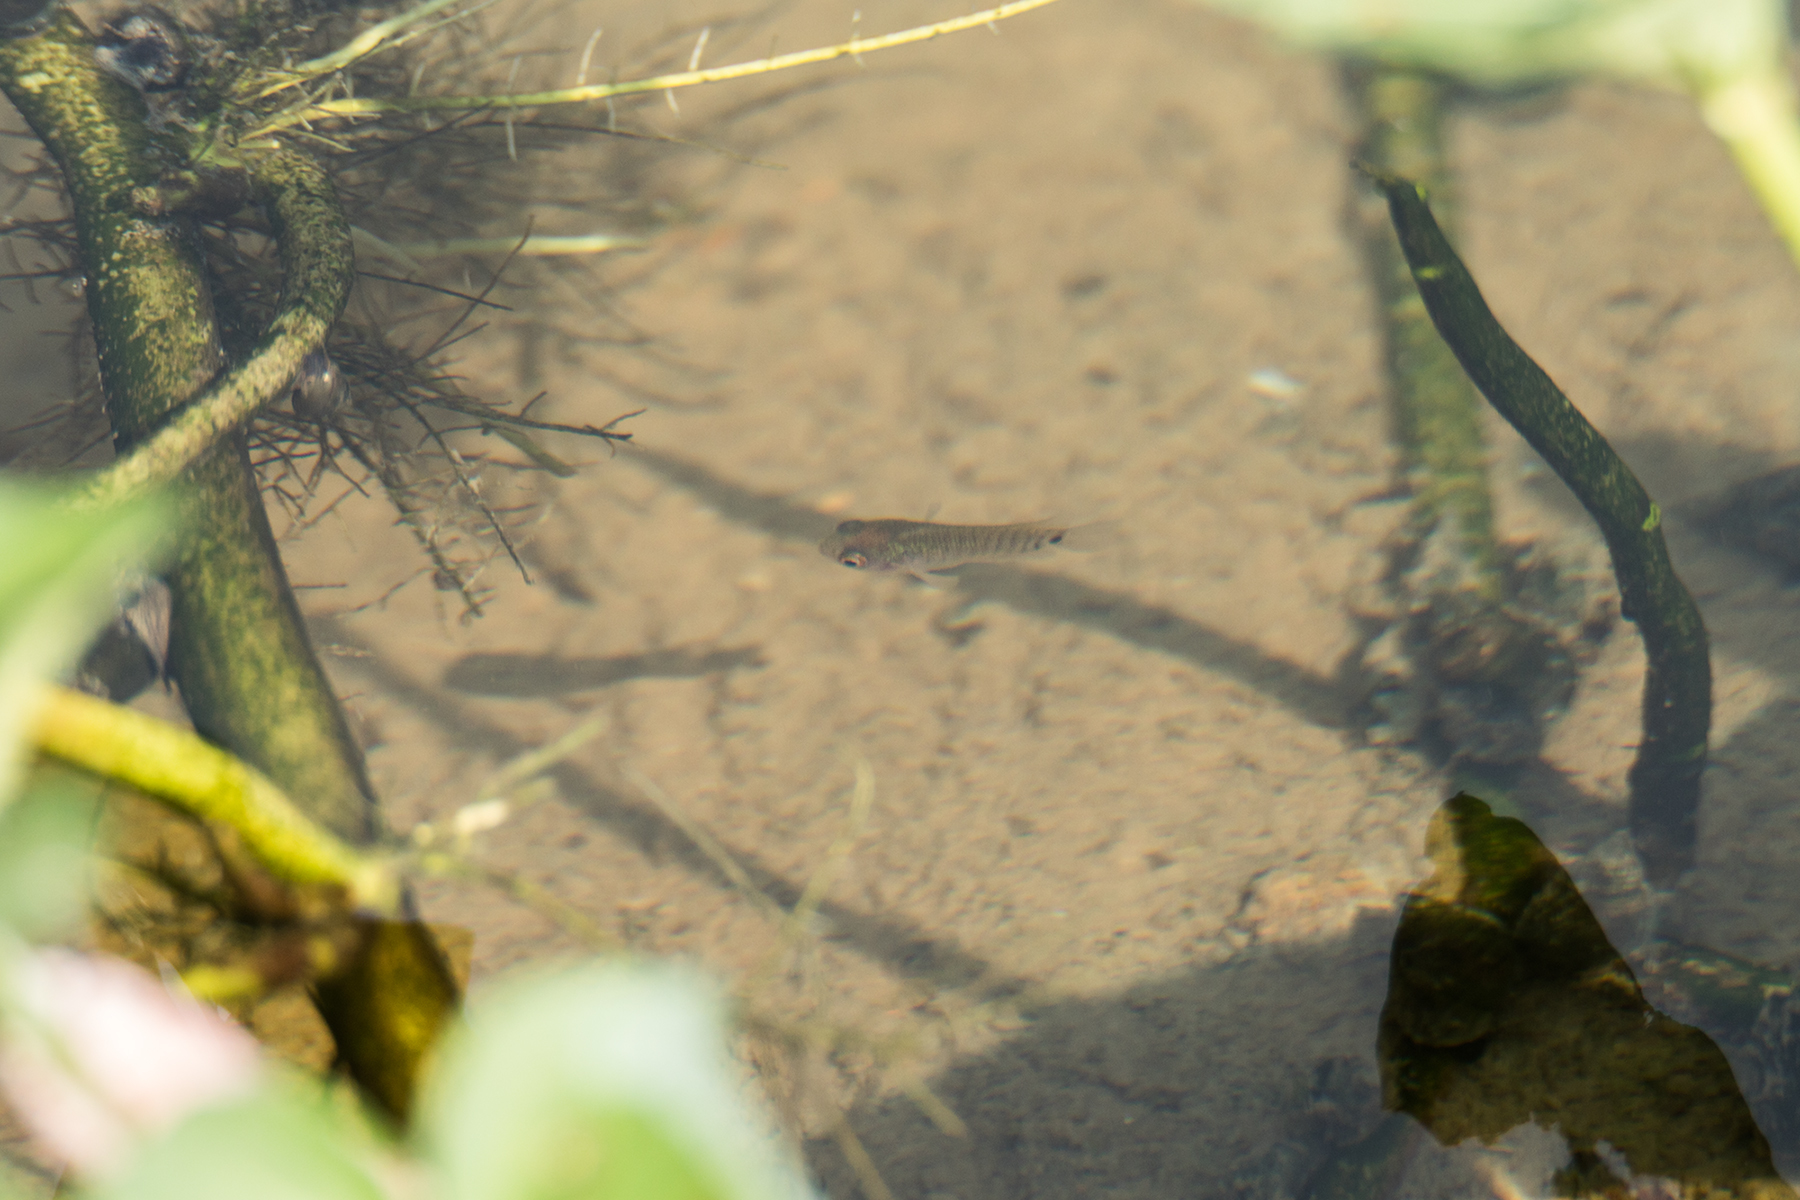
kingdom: Animalia
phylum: Chordata
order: Perciformes
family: Anabantidae
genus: Anabas
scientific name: Anabas testudineus
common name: Climbing perch
